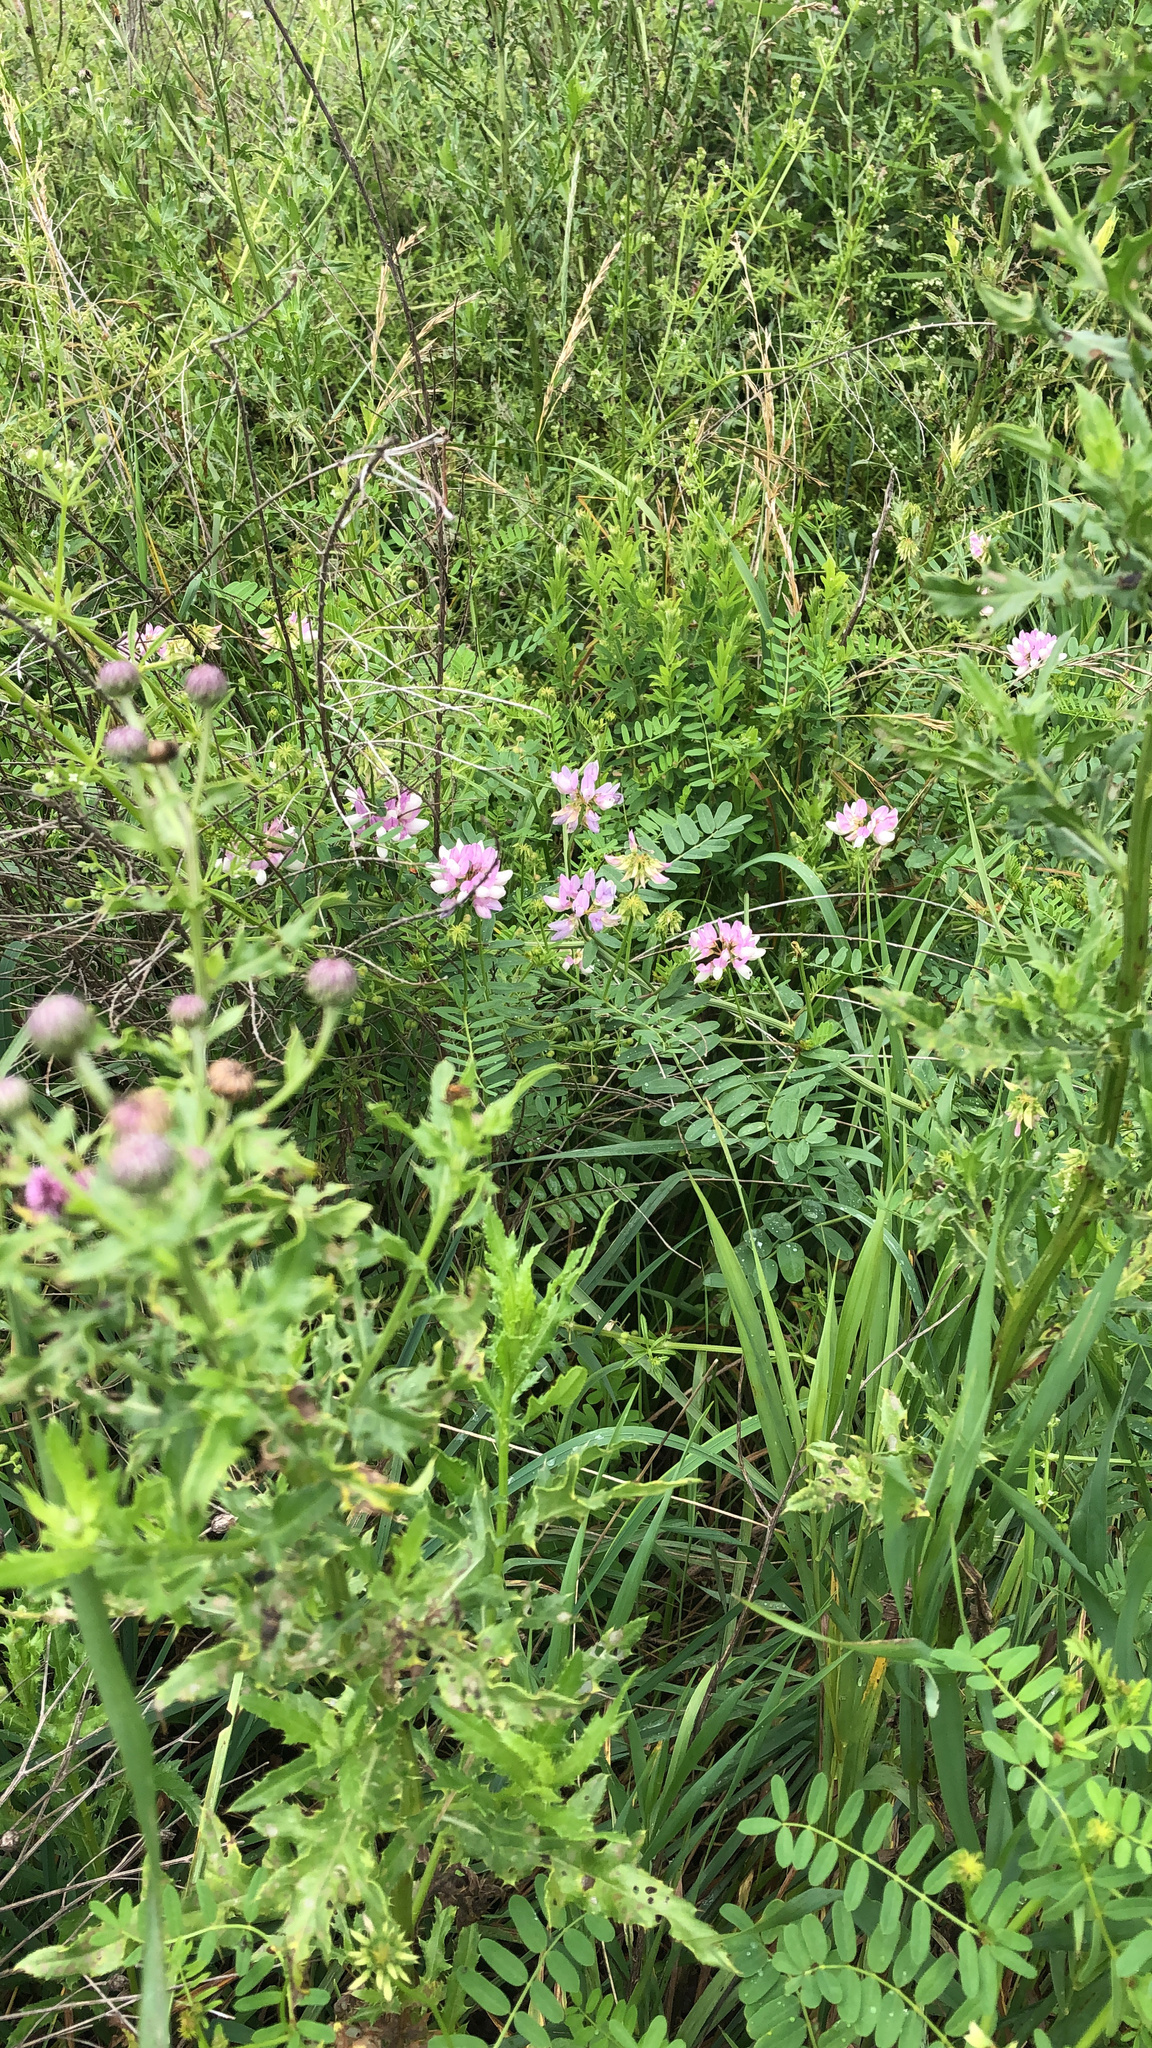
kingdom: Plantae
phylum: Tracheophyta
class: Magnoliopsida
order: Fabales
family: Fabaceae
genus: Coronilla
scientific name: Coronilla varia
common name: Crownvetch
